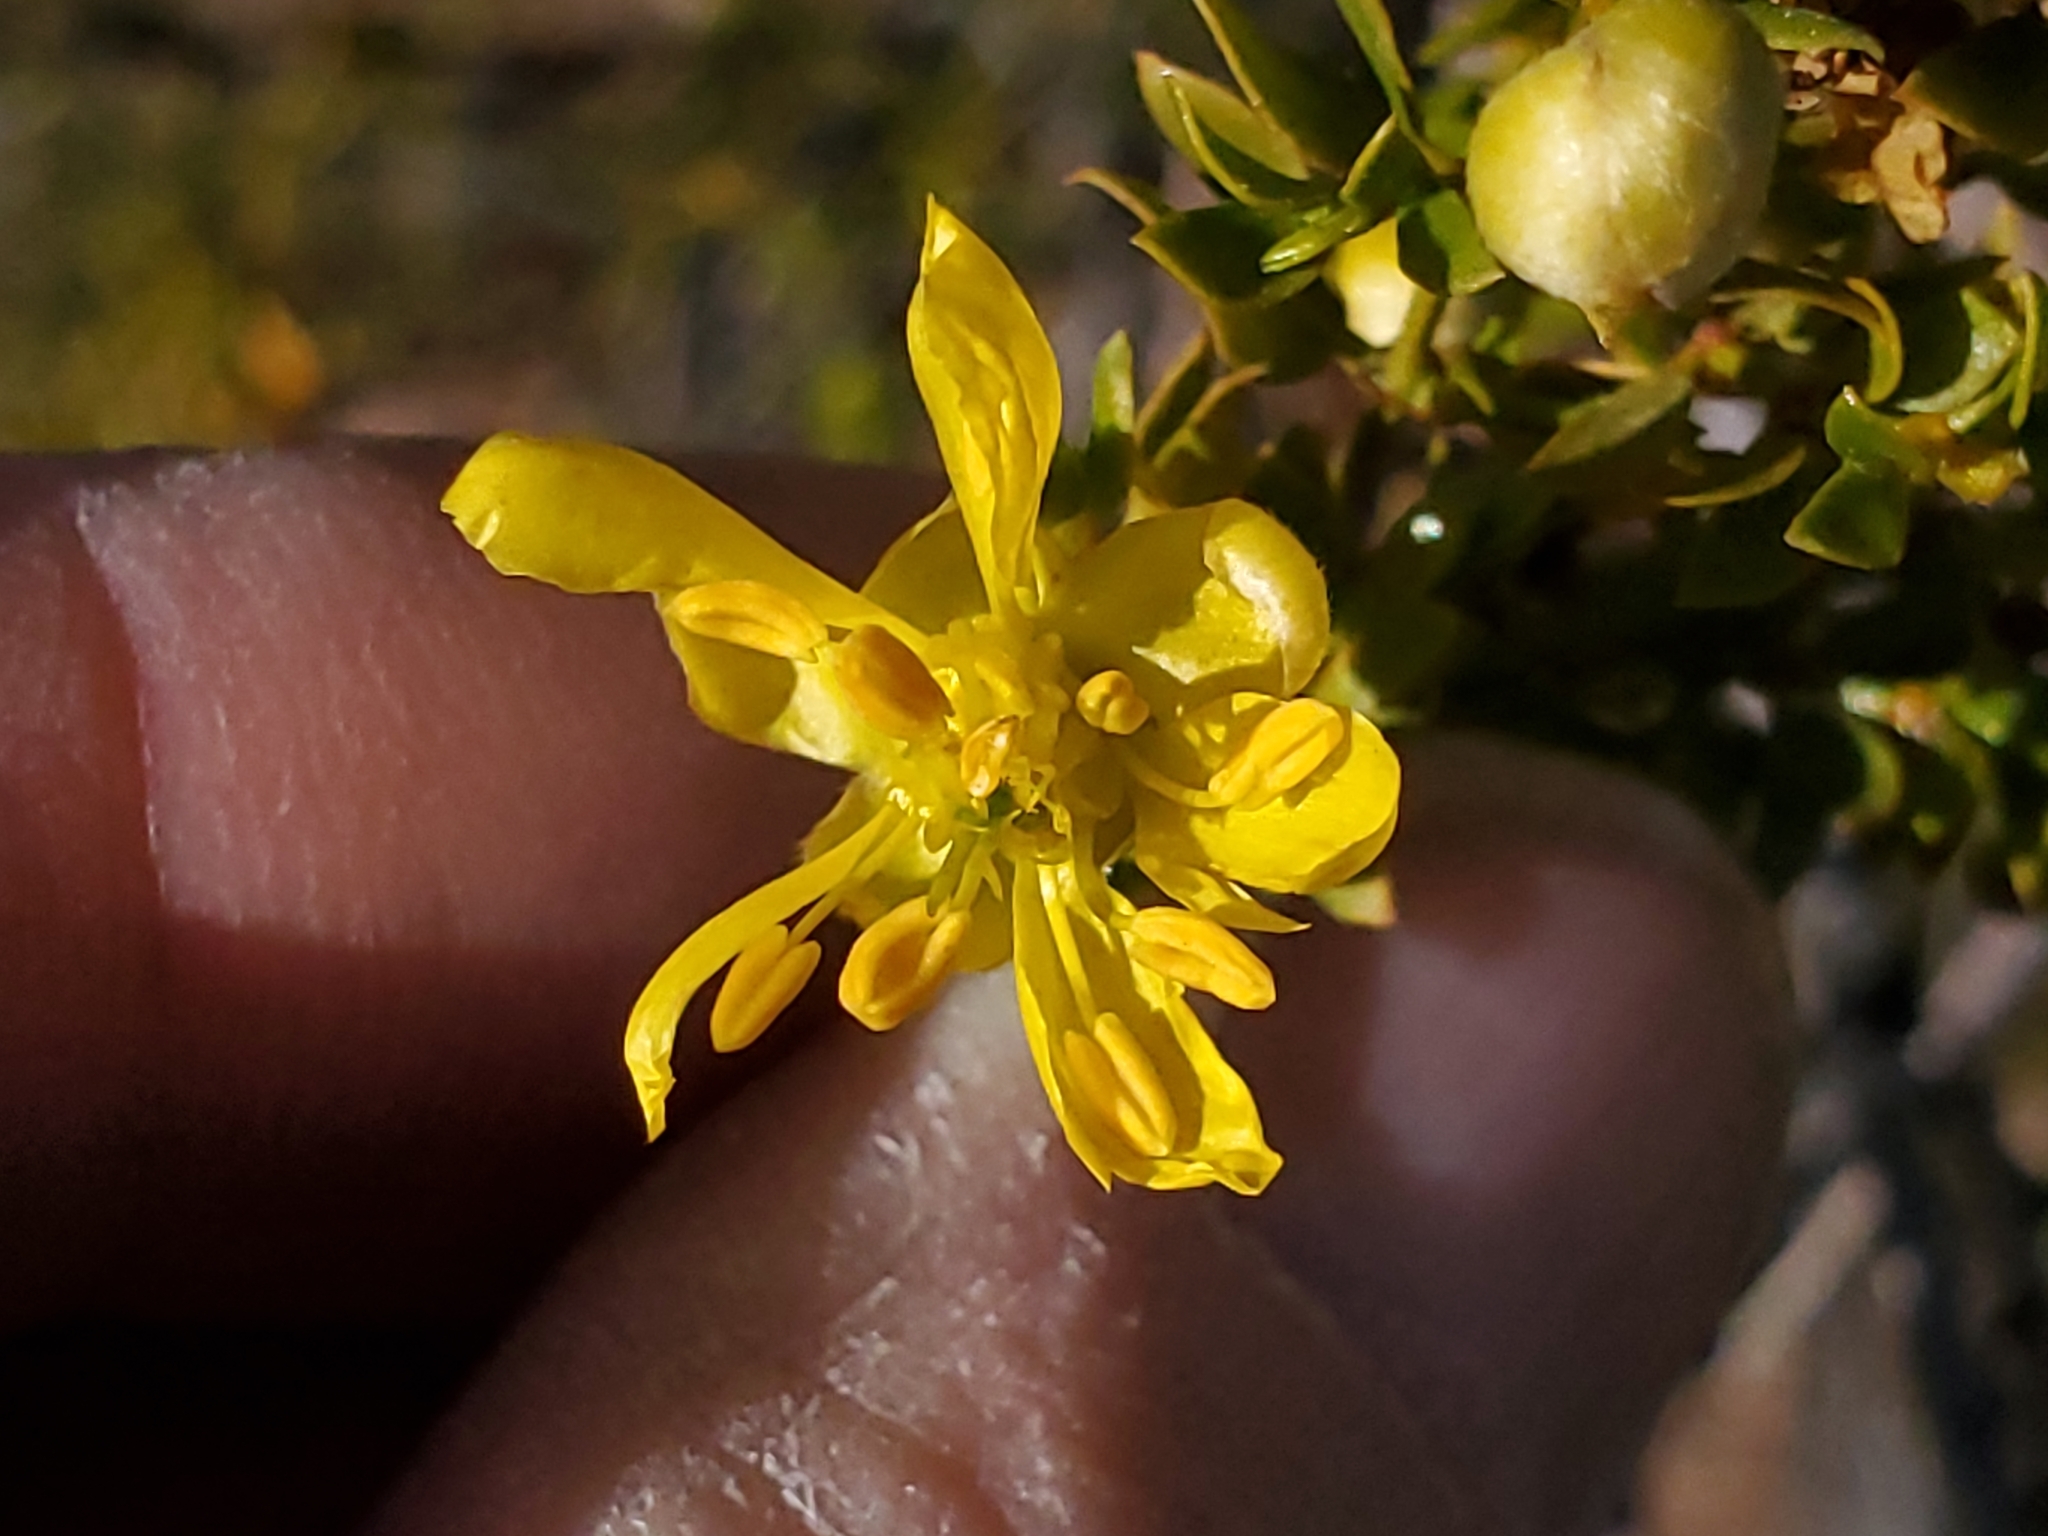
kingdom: Plantae
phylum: Tracheophyta
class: Magnoliopsida
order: Zygophyllales
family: Zygophyllaceae
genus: Larrea
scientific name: Larrea tridentata
